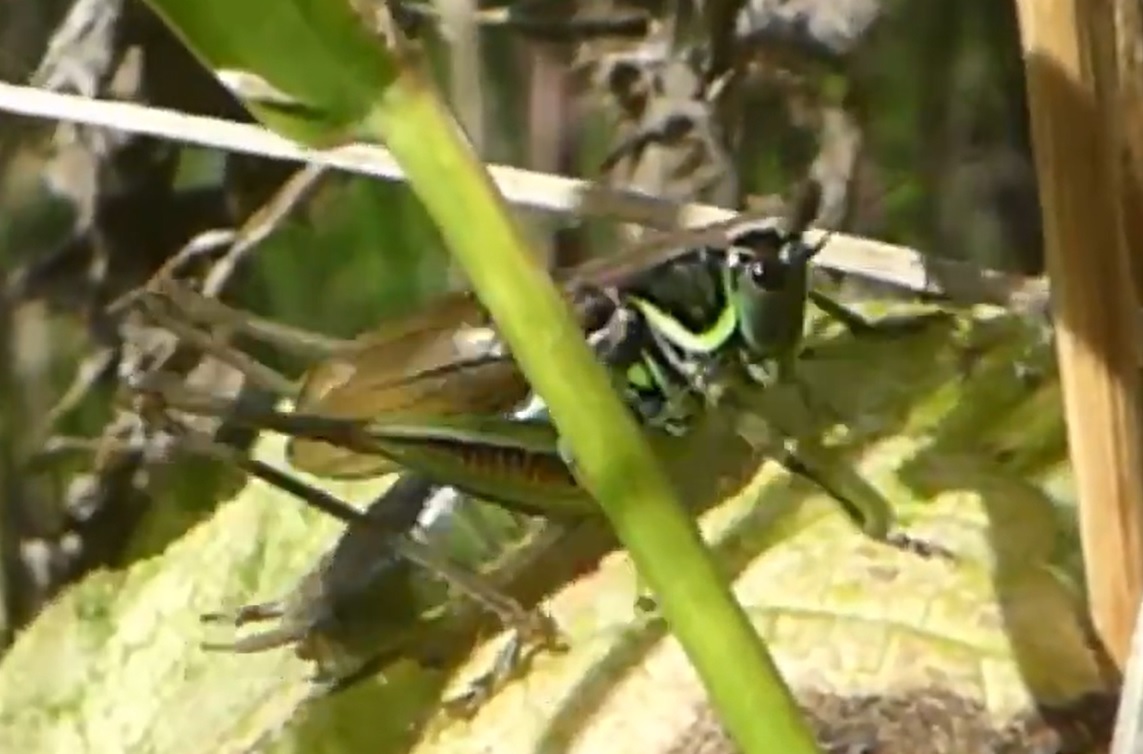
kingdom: Animalia
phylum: Arthropoda
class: Insecta
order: Orthoptera
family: Tettigoniidae
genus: Roeseliana
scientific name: Roeseliana roeselii
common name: Roesel's bush cricket
